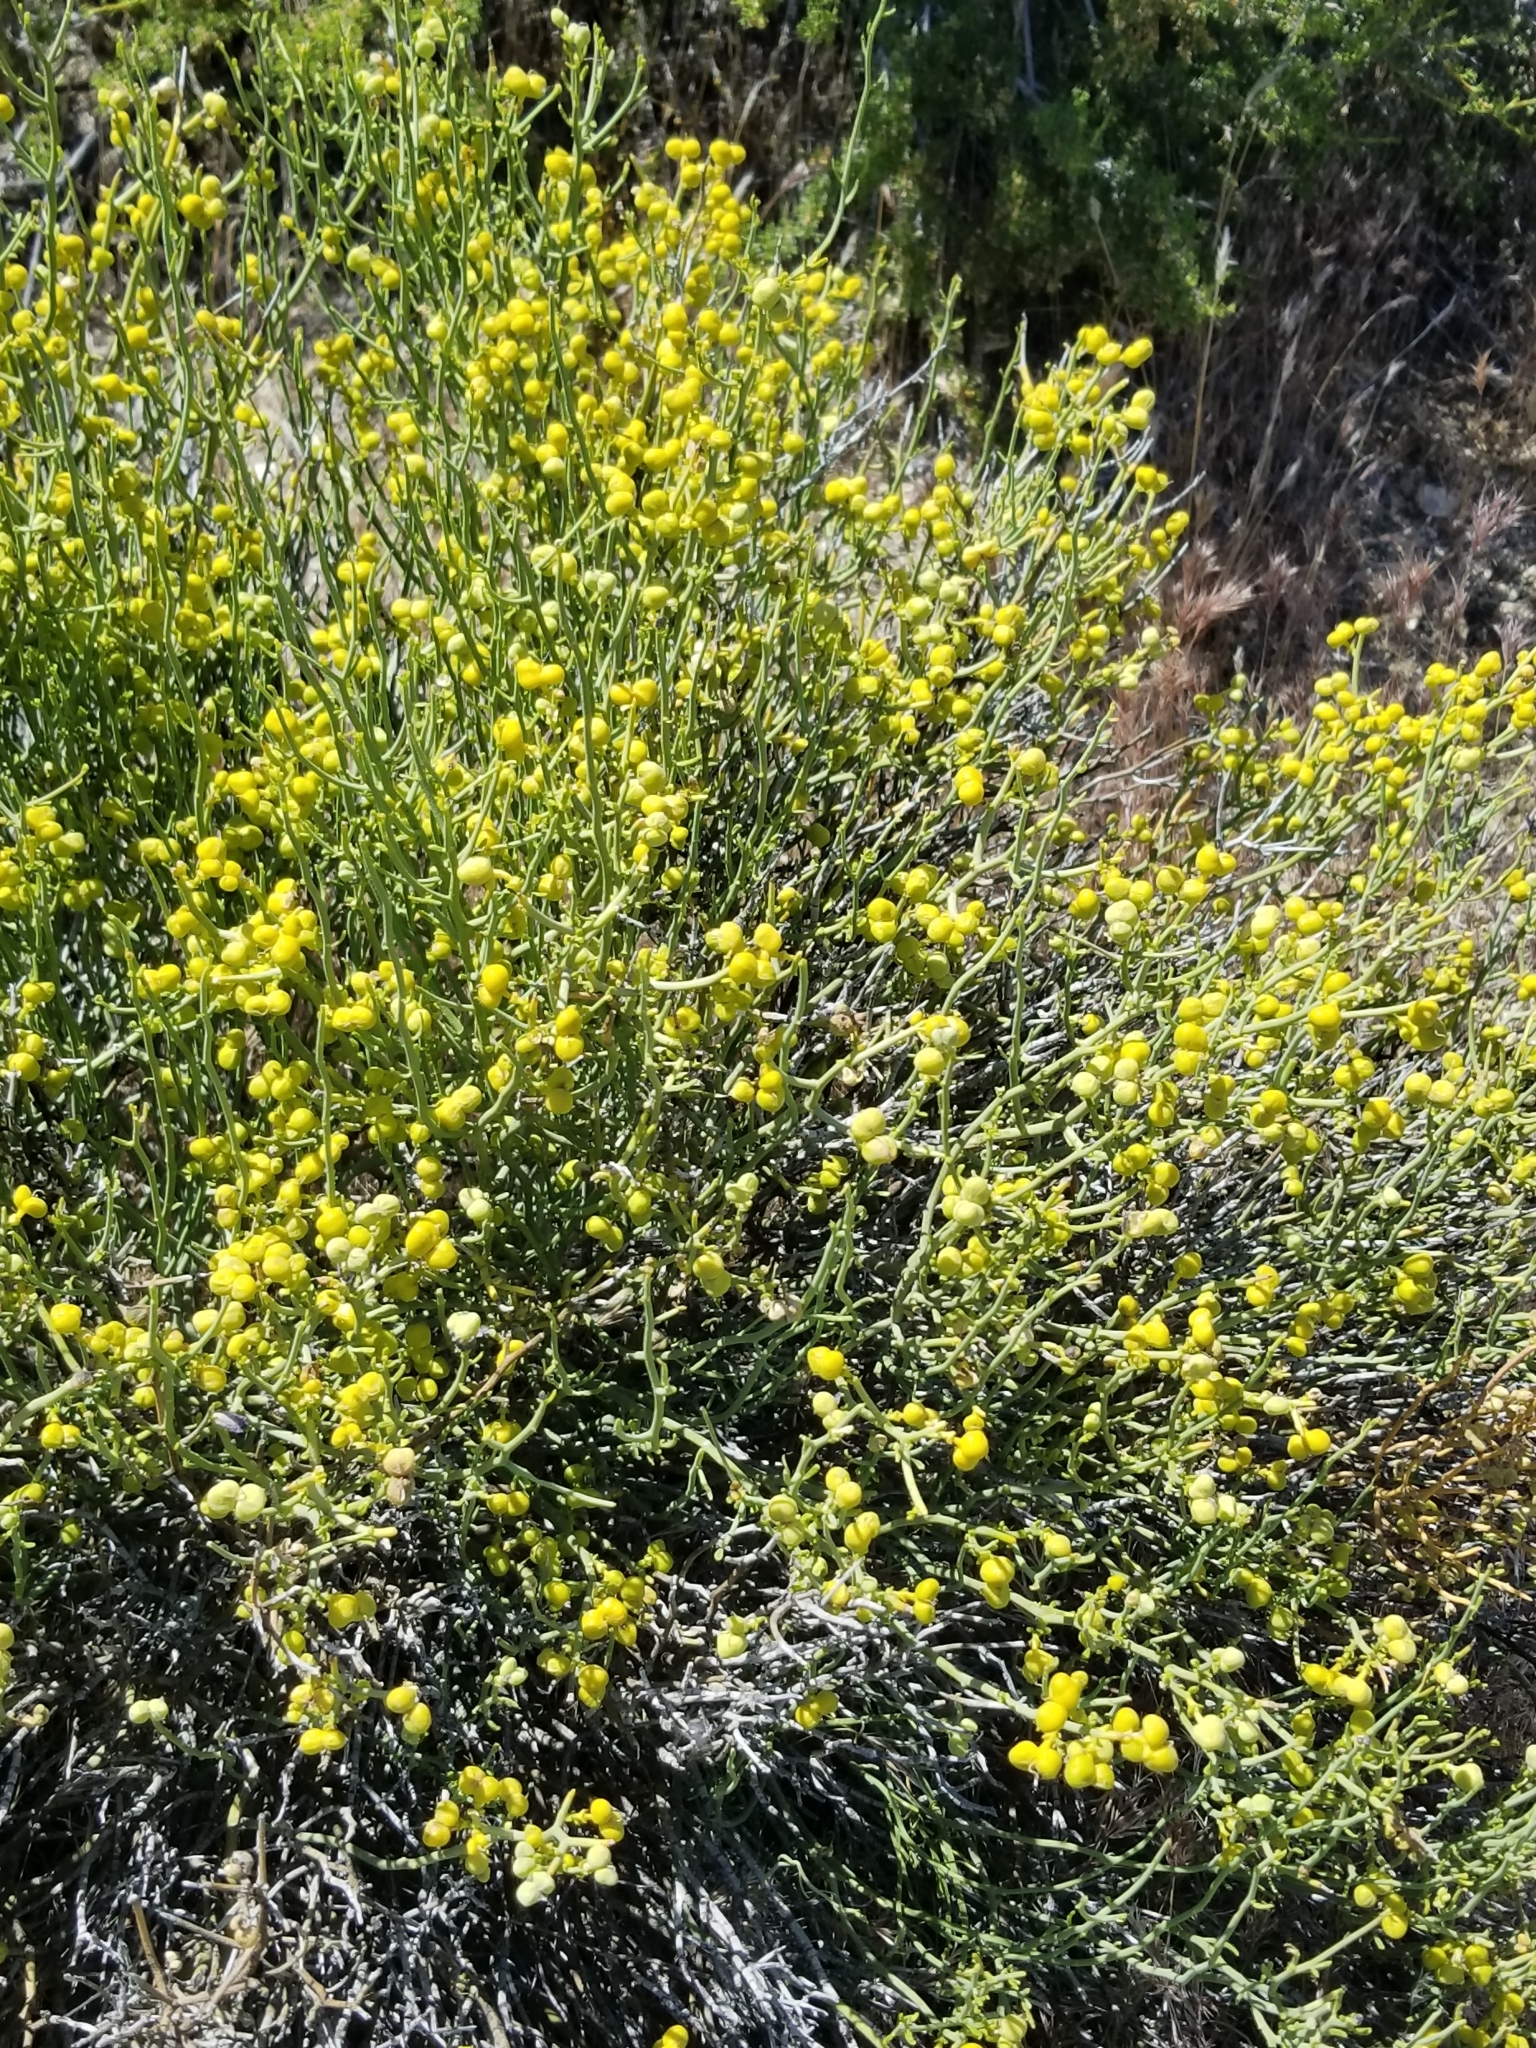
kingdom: Plantae
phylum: Tracheophyta
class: Magnoliopsida
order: Sapindales
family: Rutaceae
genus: Thamnosma
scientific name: Thamnosma montana
